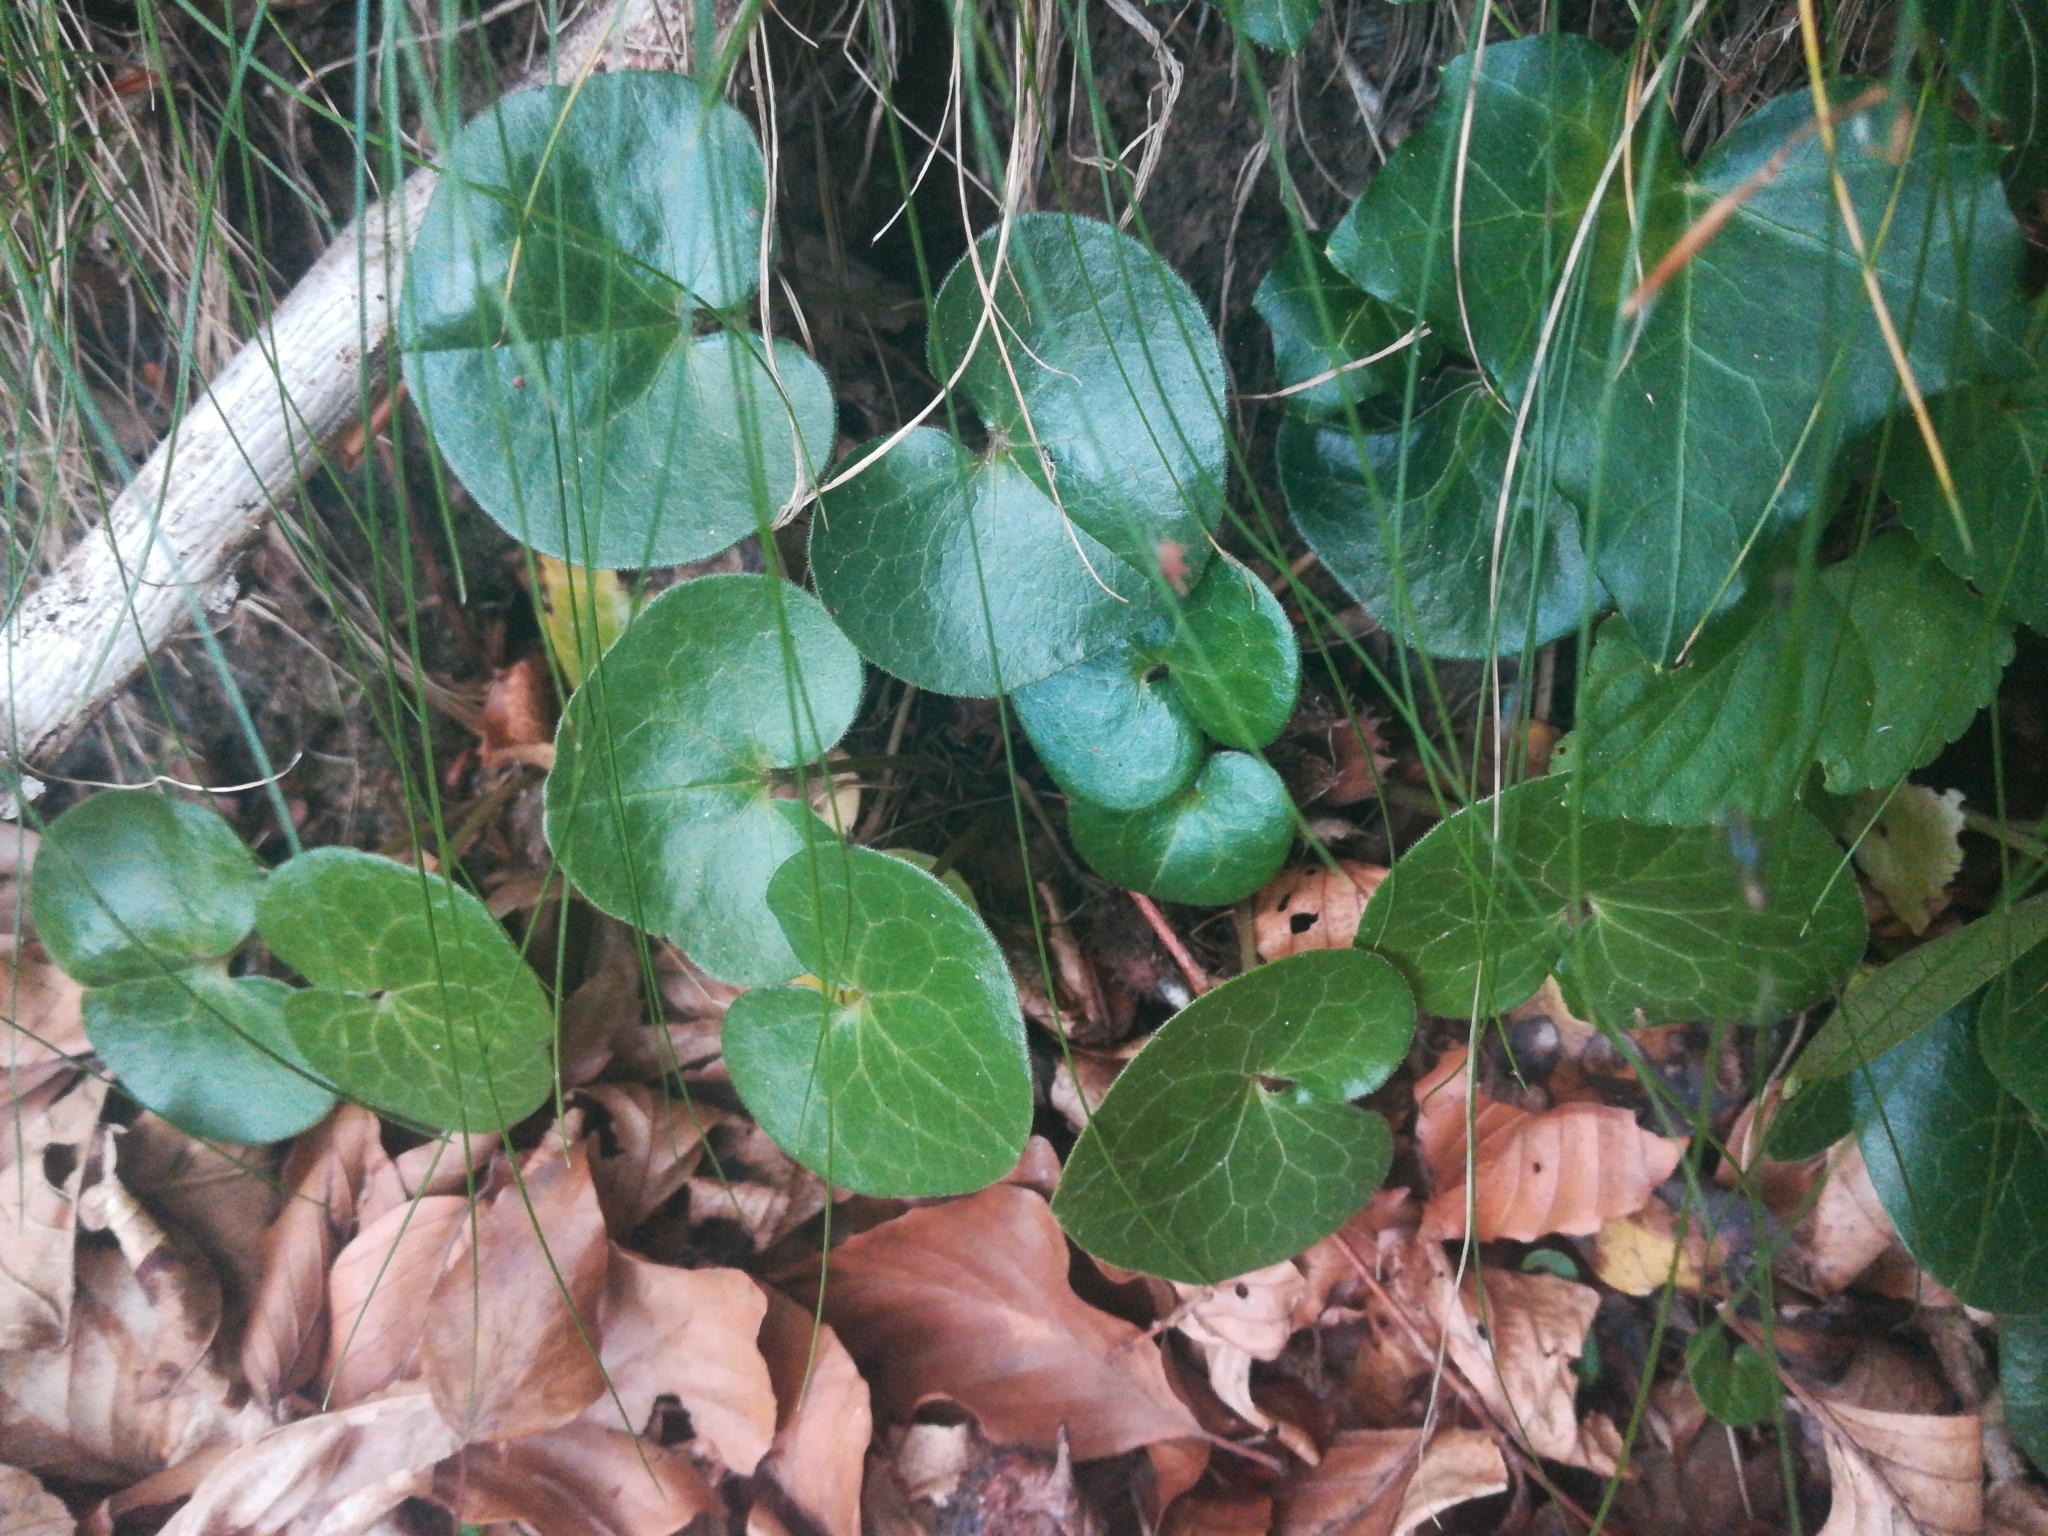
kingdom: Plantae
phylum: Tracheophyta
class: Magnoliopsida
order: Piperales
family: Aristolochiaceae
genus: Asarum
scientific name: Asarum europaeum
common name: Asarabacca
